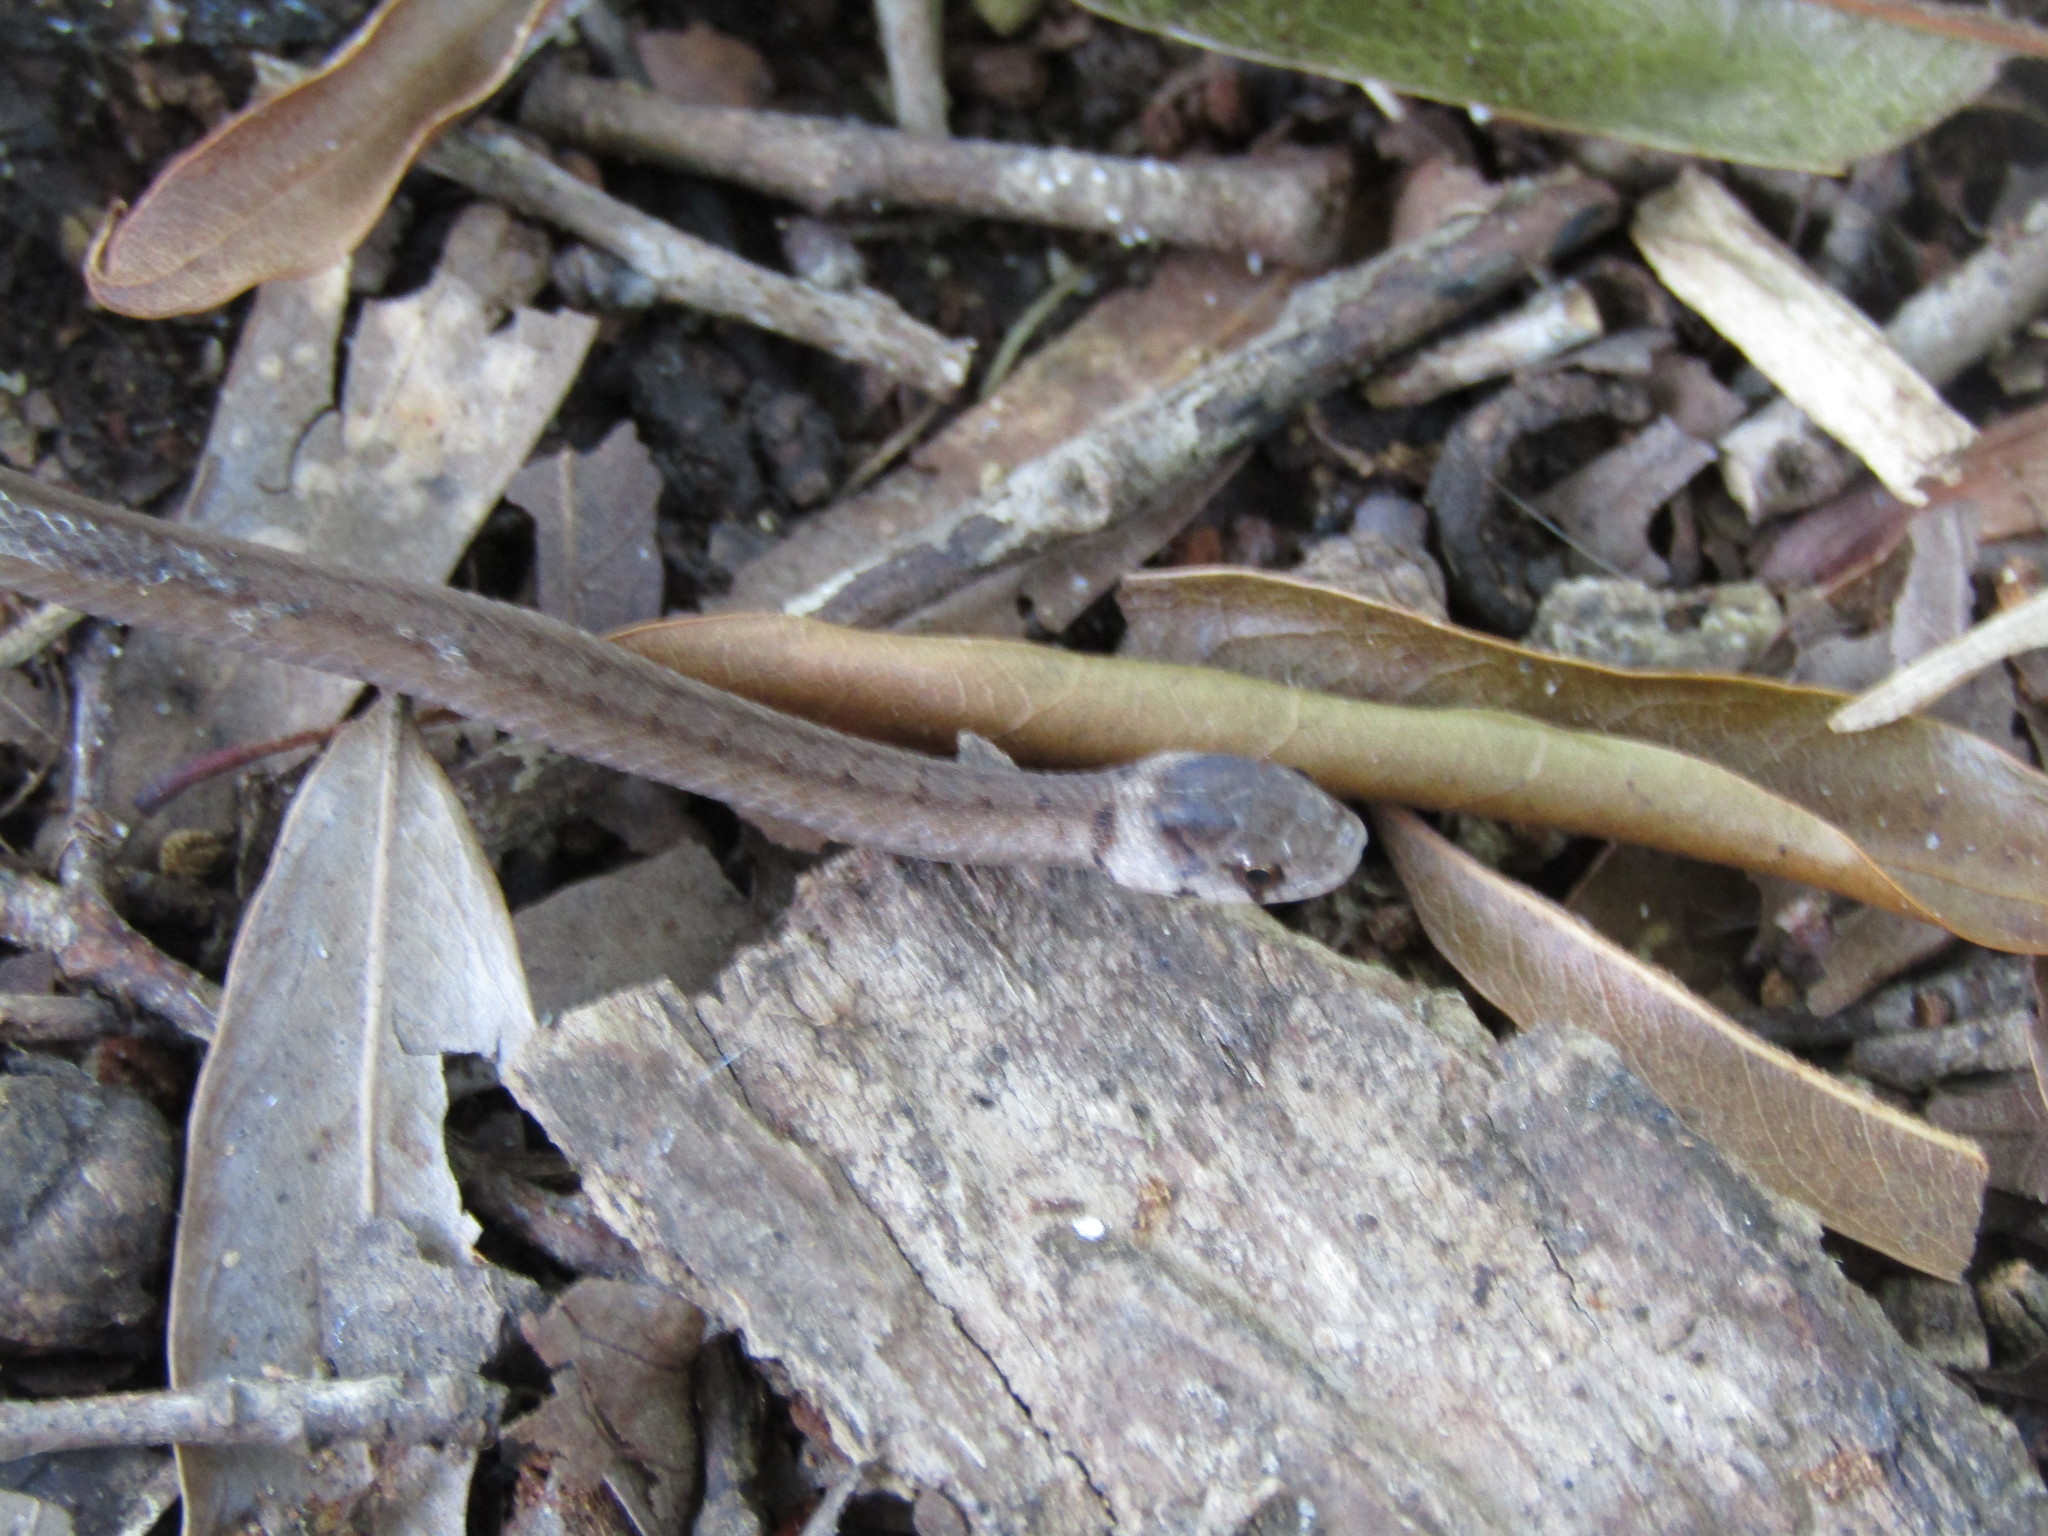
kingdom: Animalia
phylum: Chordata
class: Squamata
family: Colubridae
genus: Storeria
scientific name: Storeria dekayi
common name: (dekay’s) brown snake
